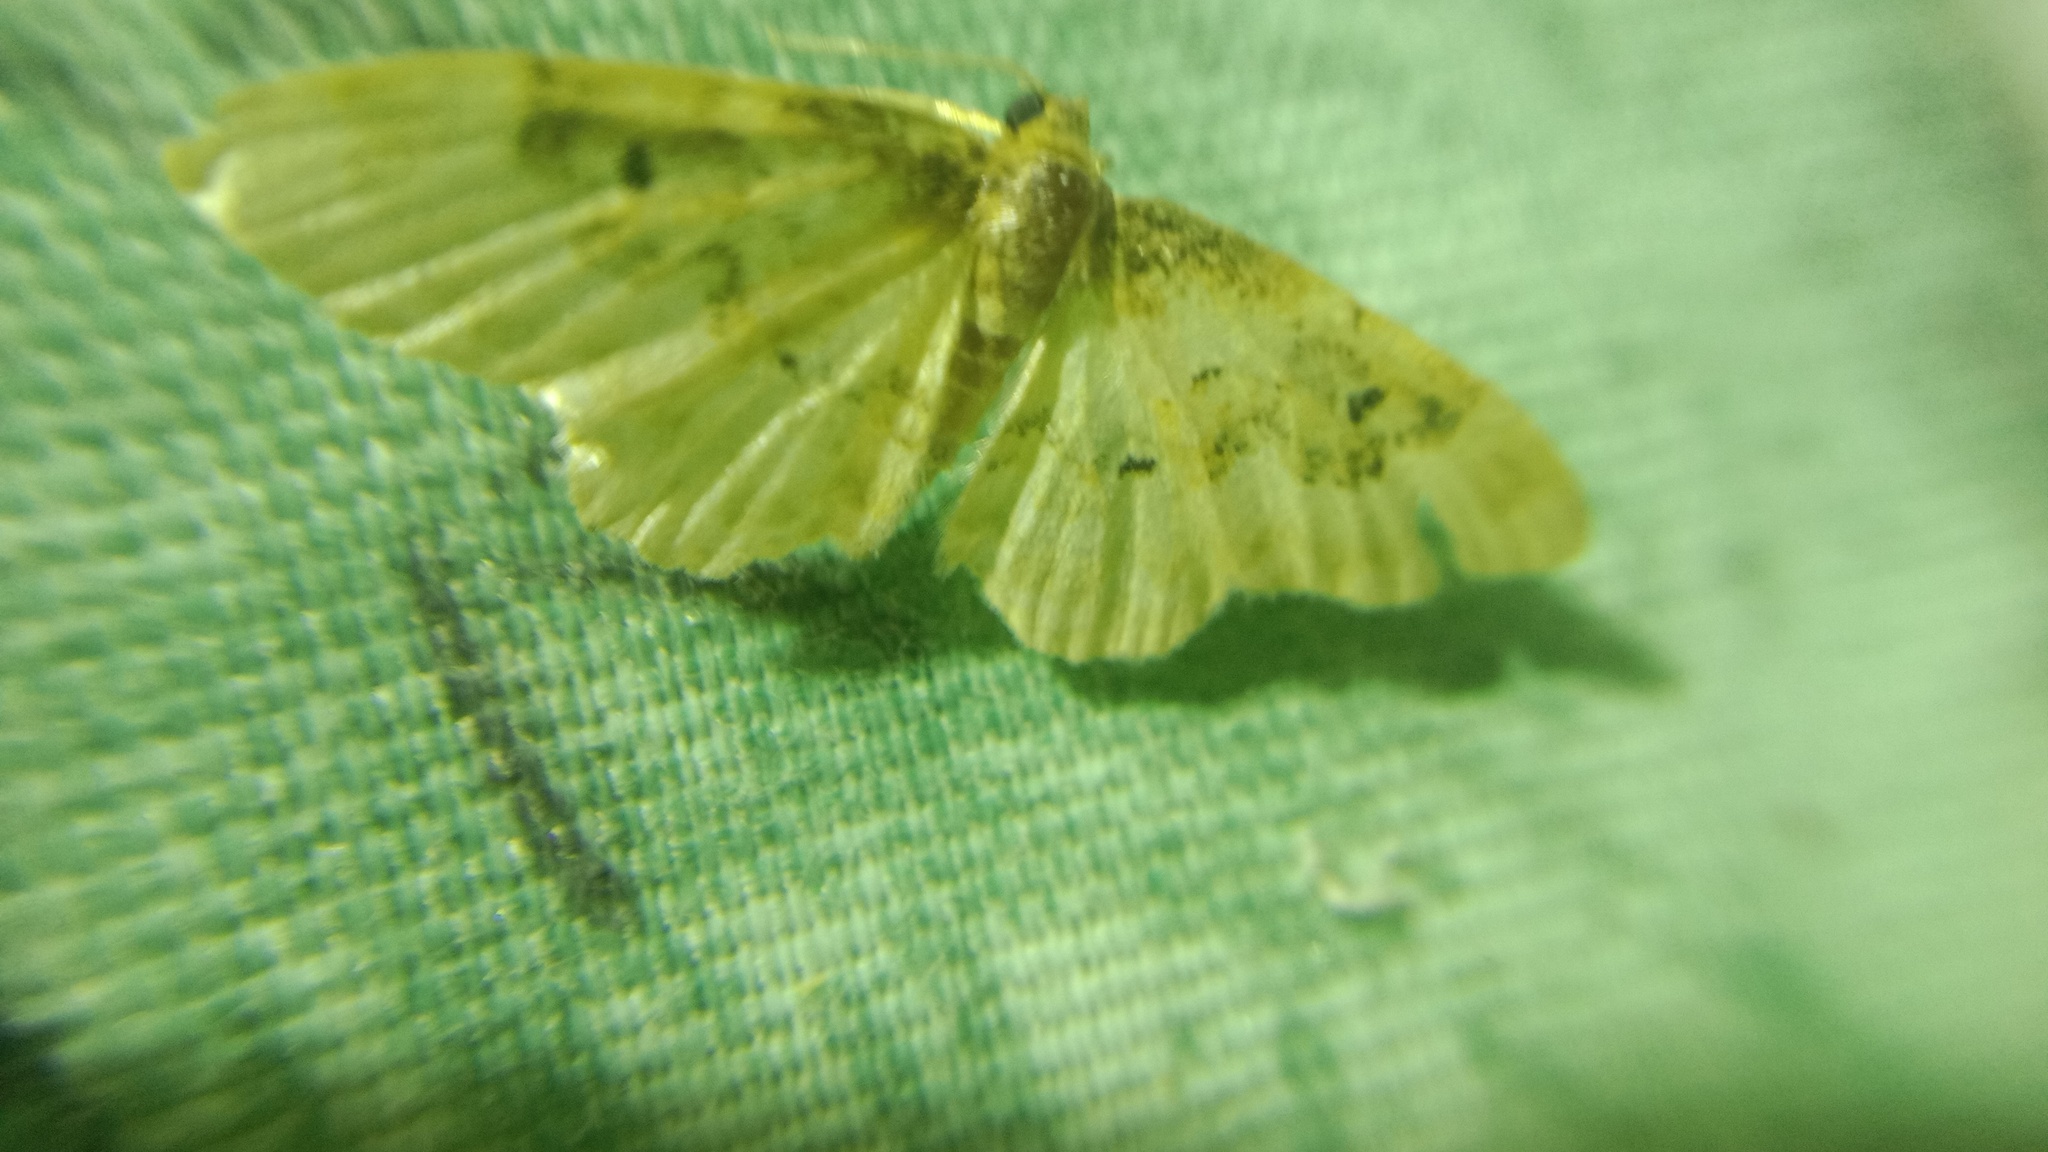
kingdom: Animalia
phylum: Arthropoda
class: Insecta
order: Lepidoptera
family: Geometridae
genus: Idaea
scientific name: Idaea rusticata
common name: Least carpet
